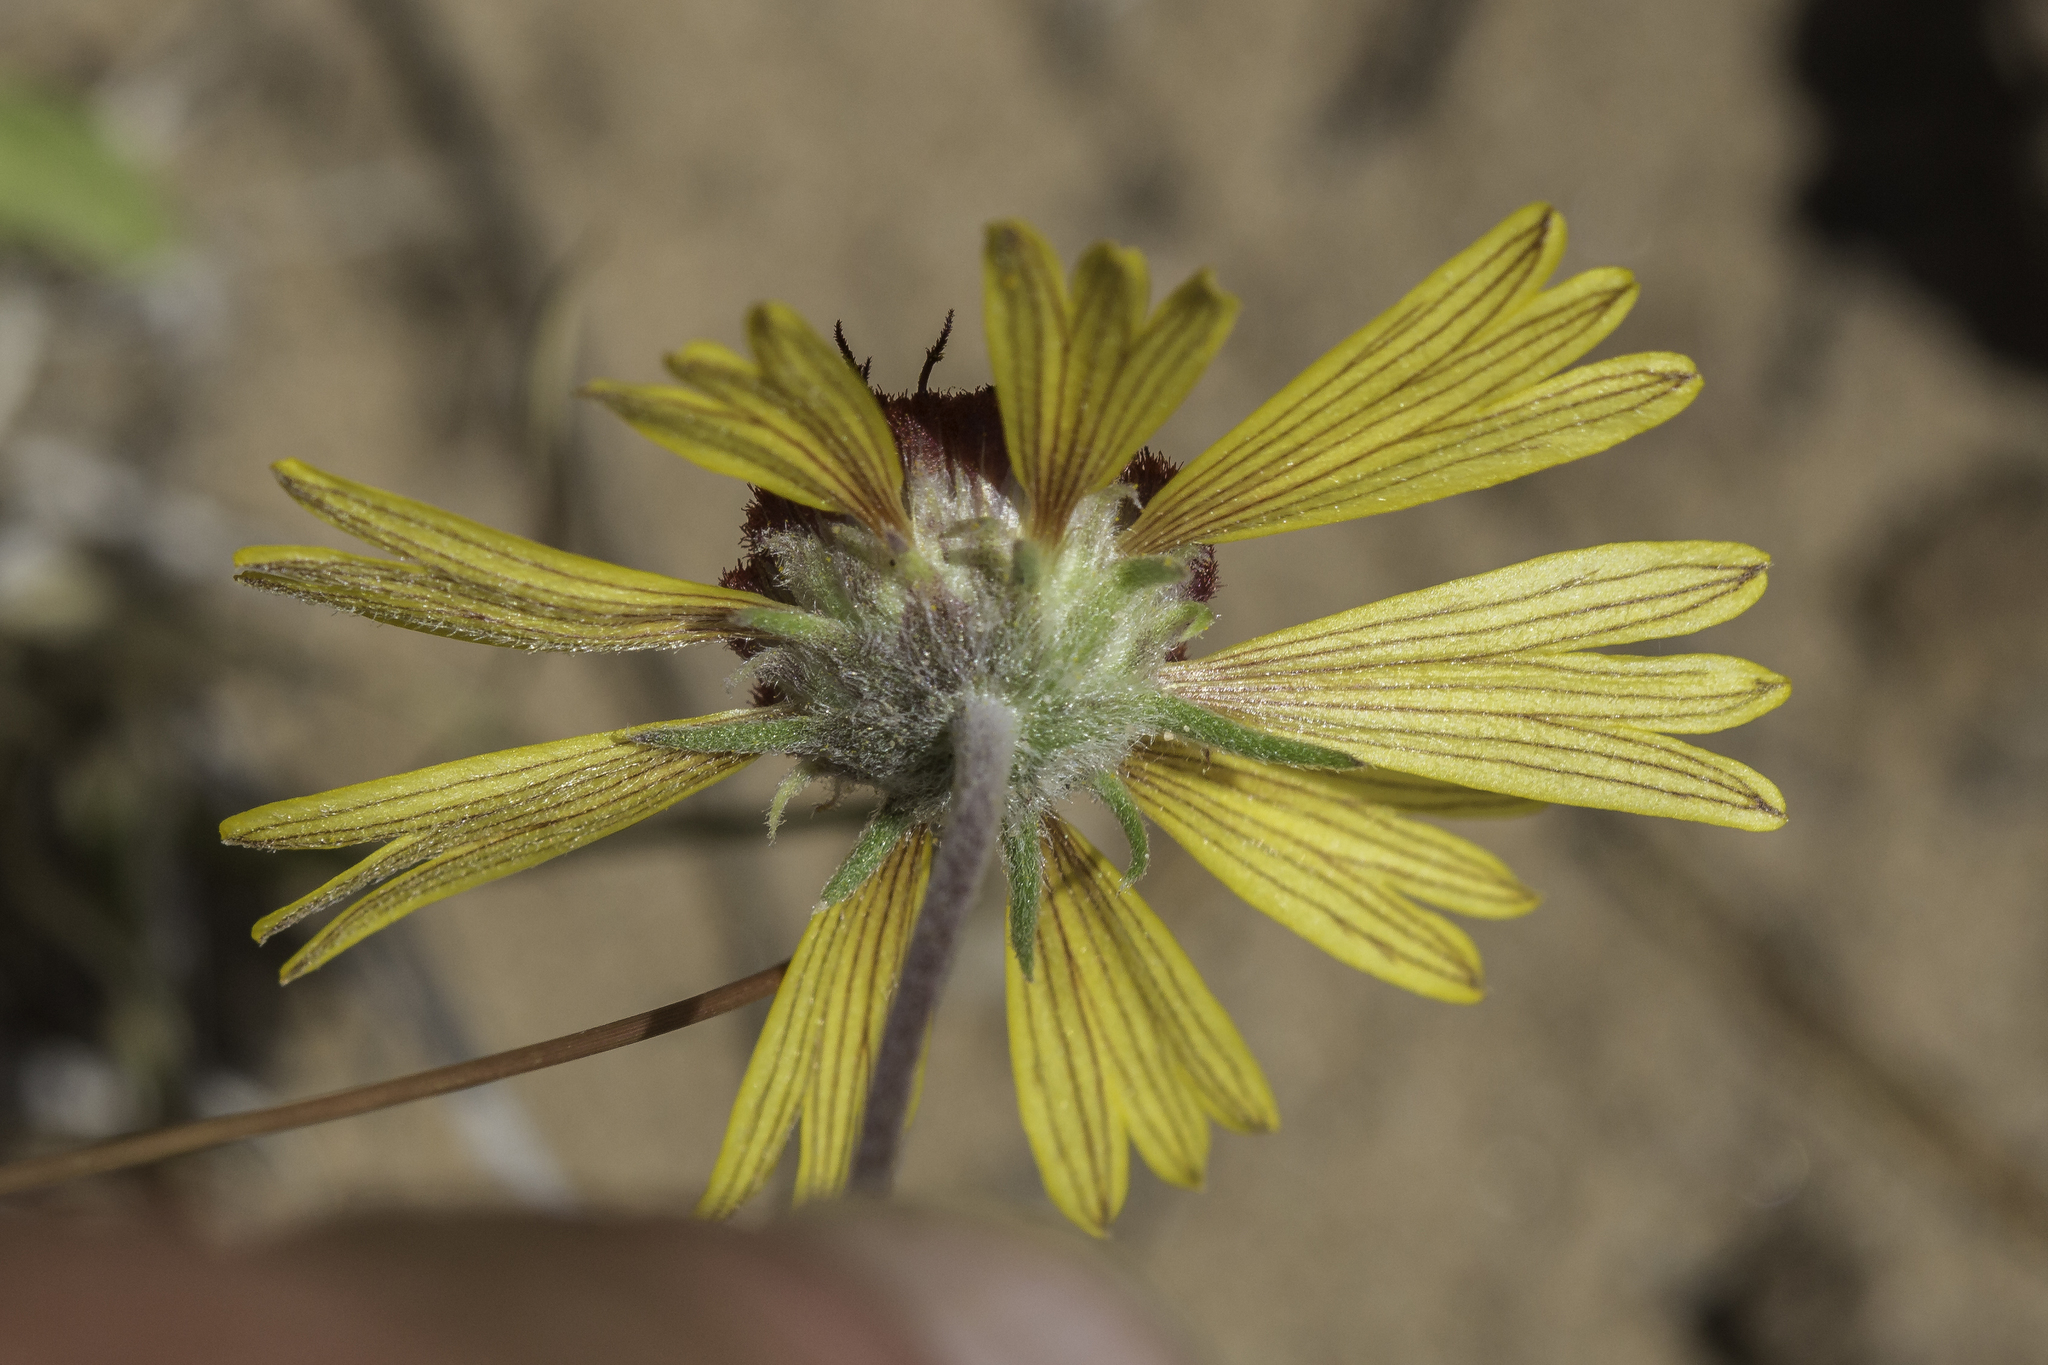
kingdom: Plantae
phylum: Tracheophyta
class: Magnoliopsida
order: Asterales
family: Asteraceae
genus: Gaillardia
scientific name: Gaillardia pinnatifida
